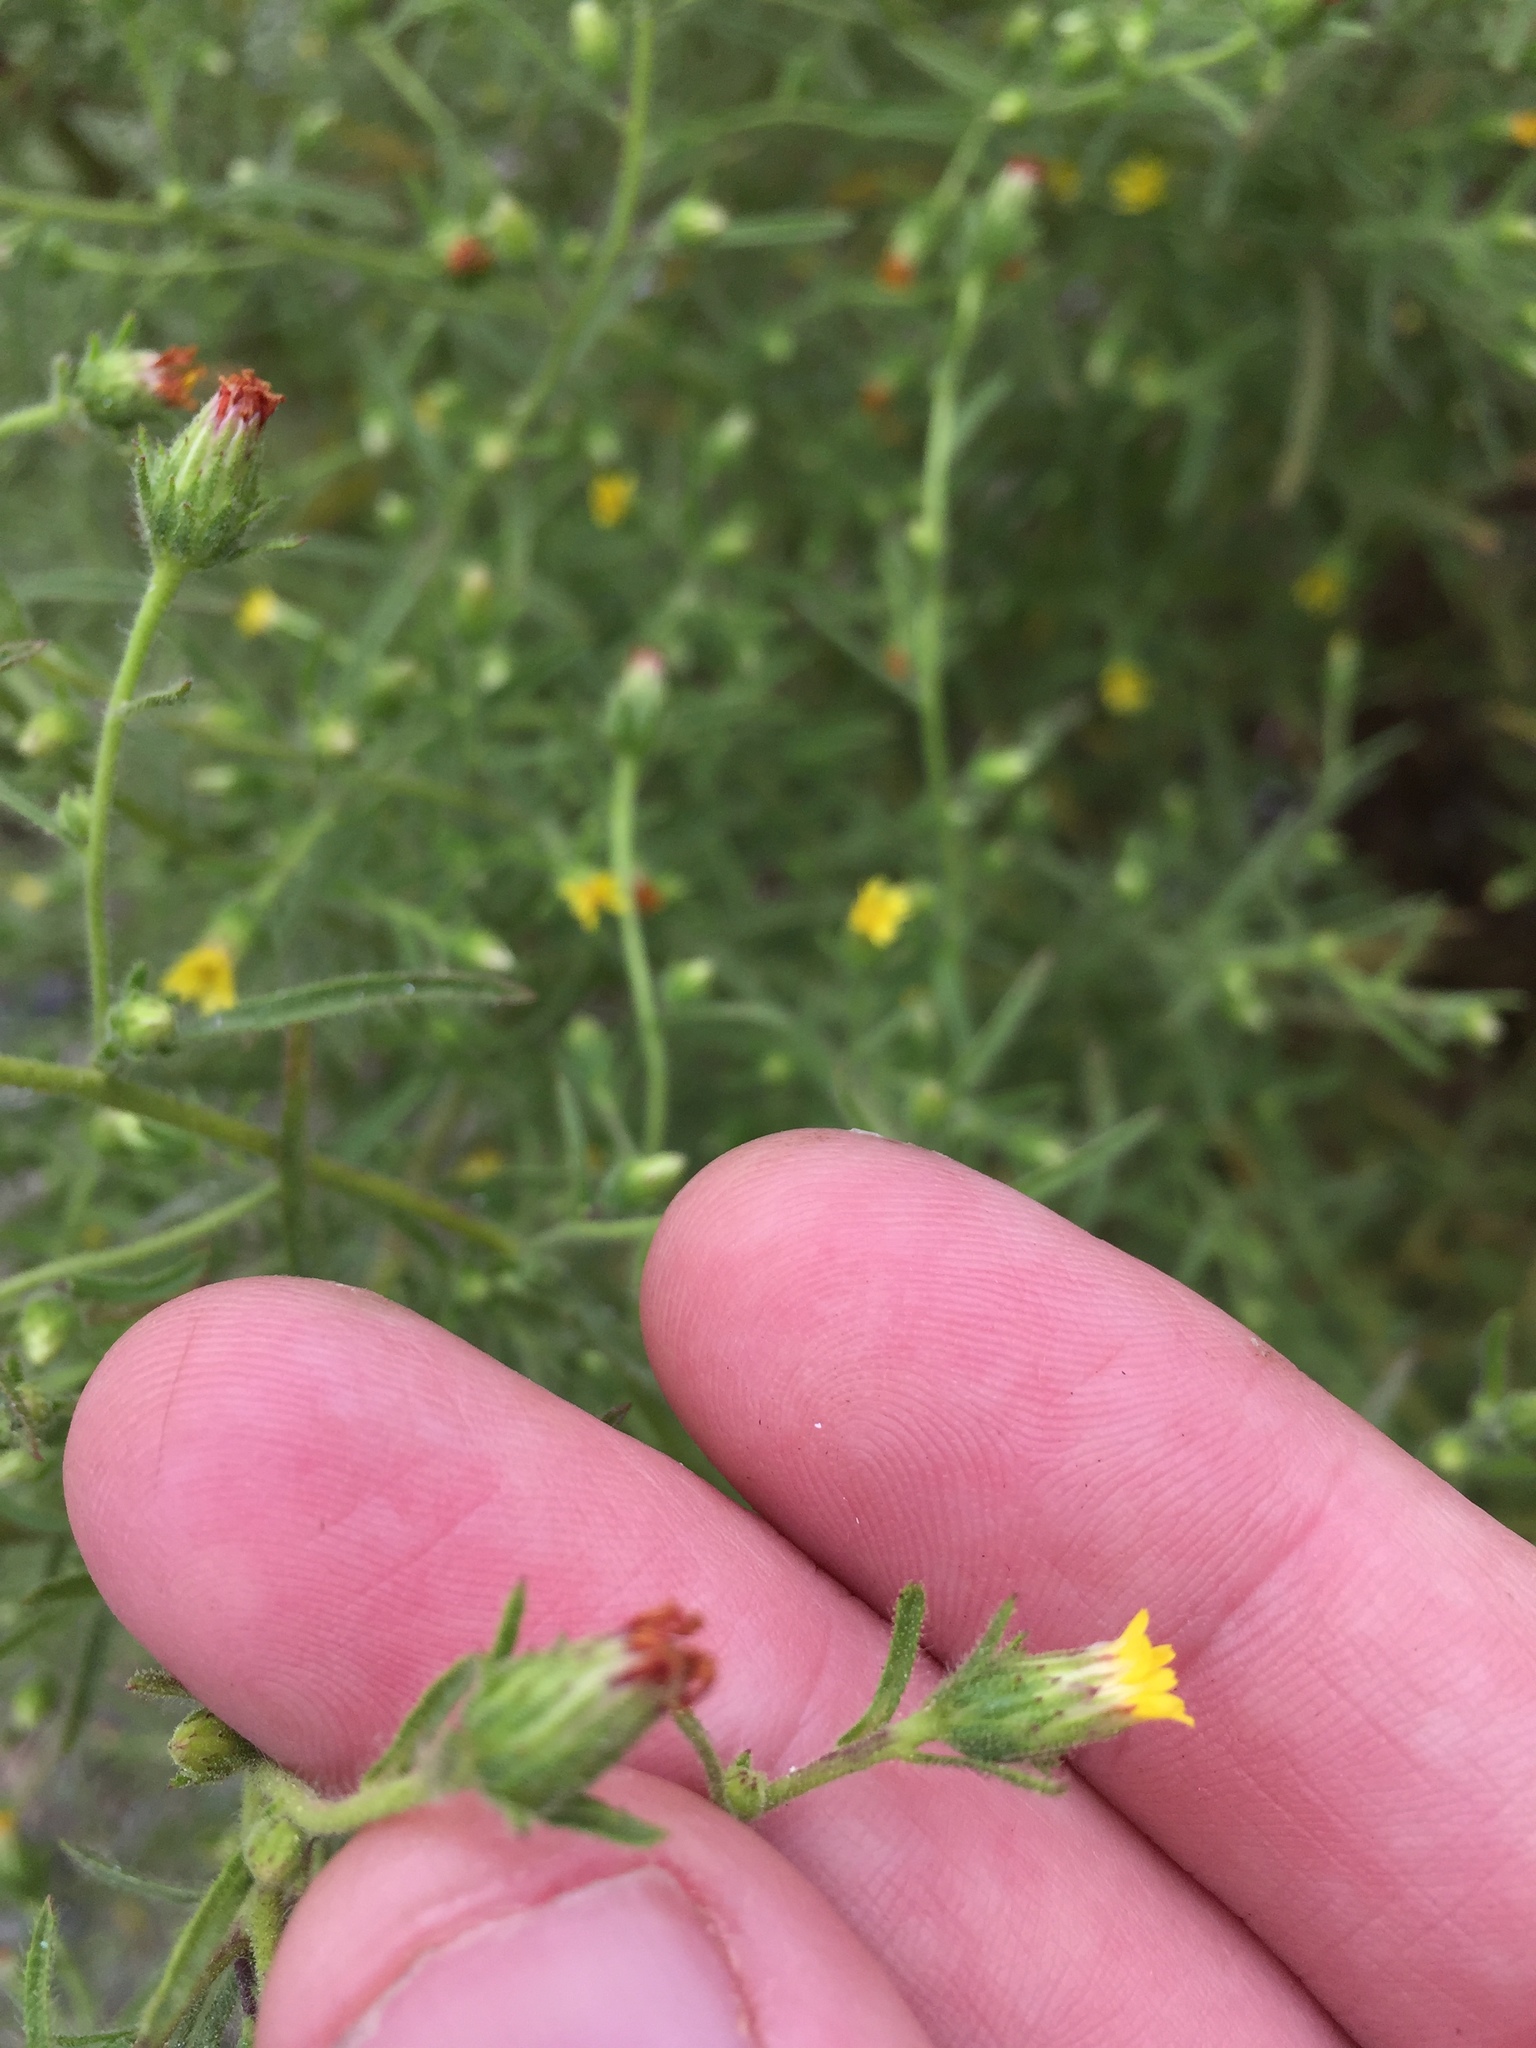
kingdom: Plantae
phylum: Tracheophyta
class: Magnoliopsida
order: Asterales
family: Asteraceae
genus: Dittrichia
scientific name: Dittrichia graveolens
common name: Stinking fleabane
